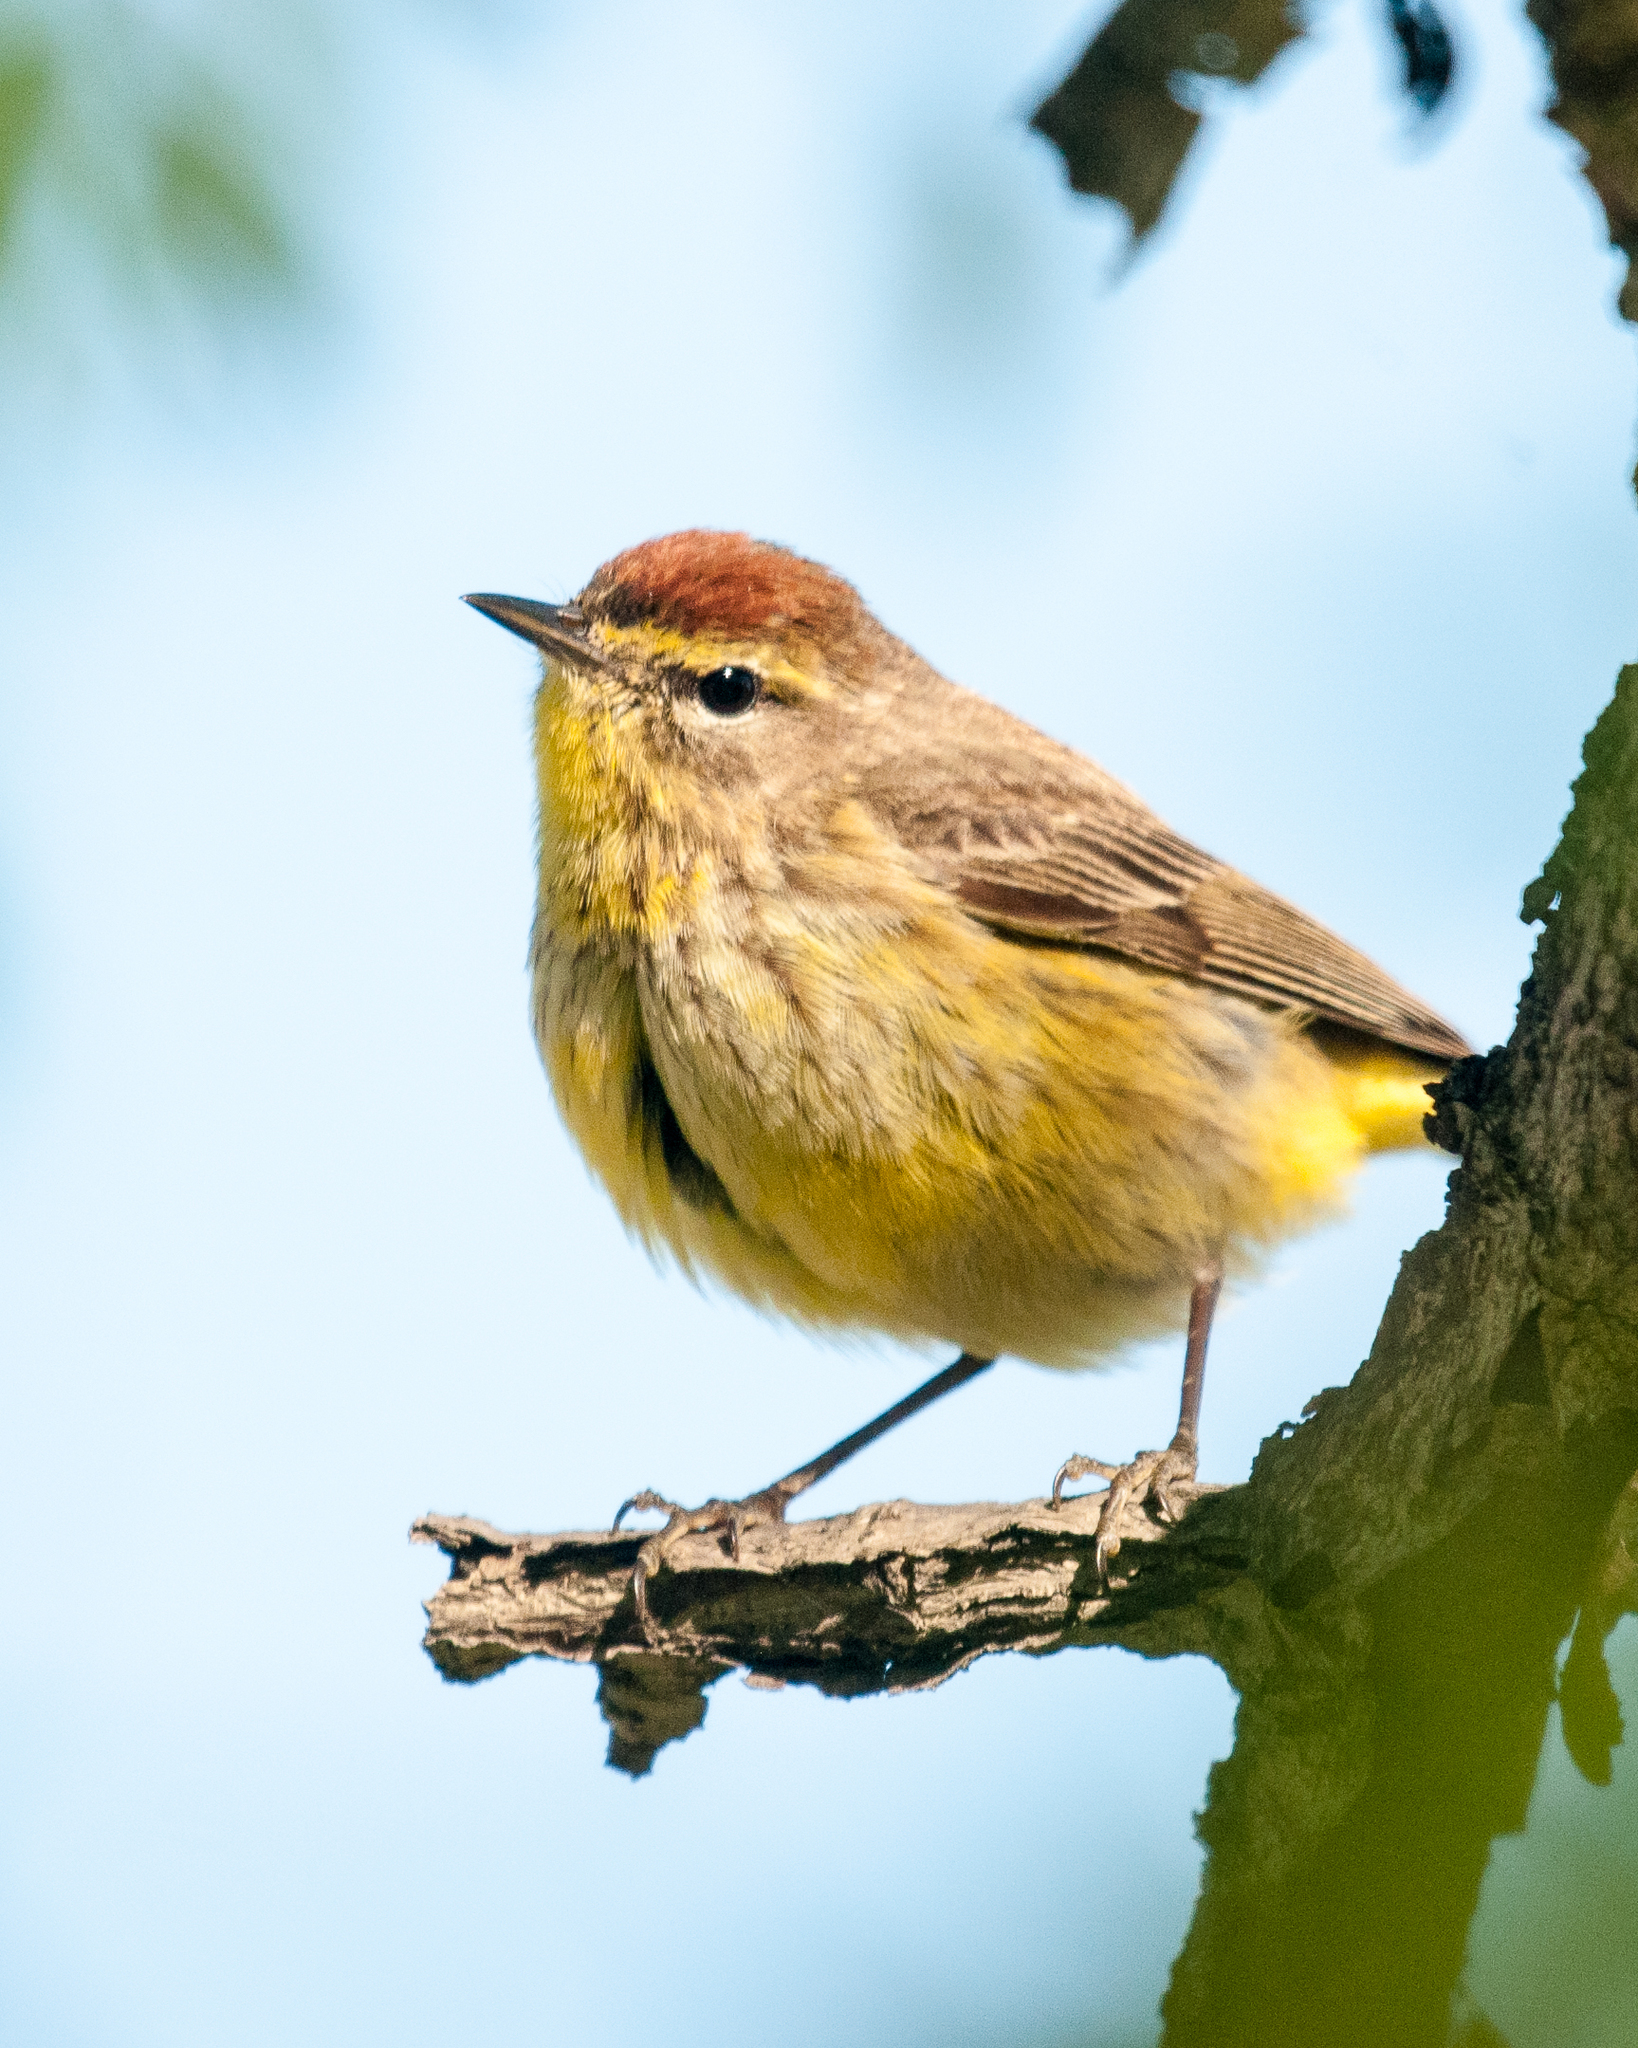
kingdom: Animalia
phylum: Chordata
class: Aves
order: Passeriformes
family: Parulidae
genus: Setophaga
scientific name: Setophaga palmarum
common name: Palm warbler
